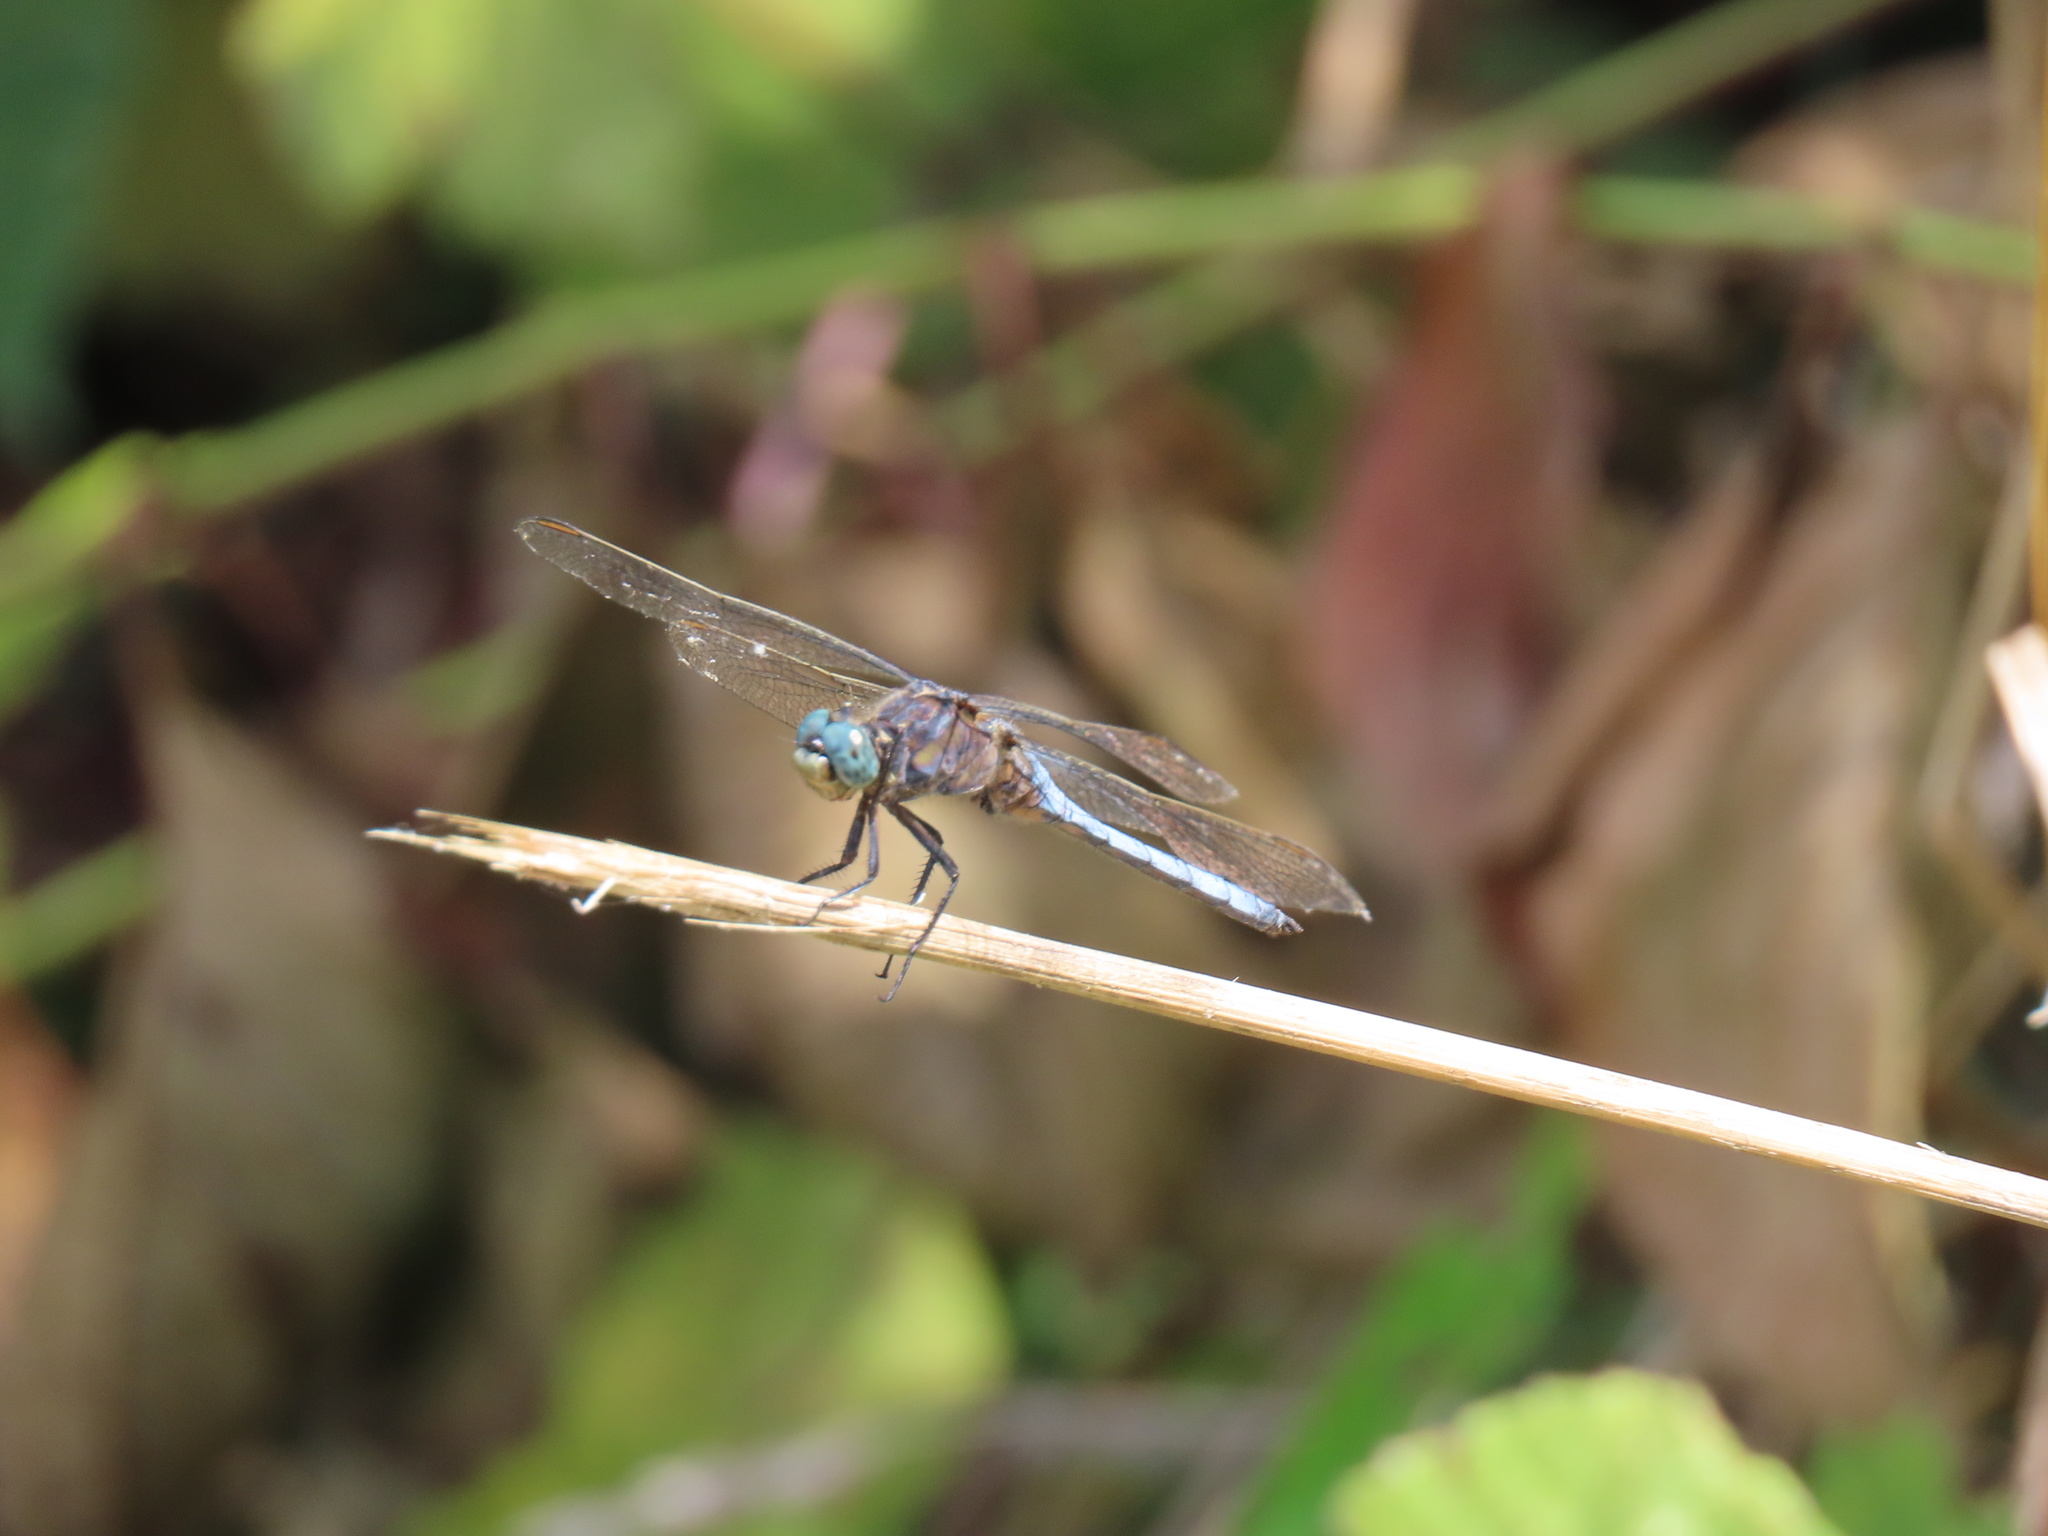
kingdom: Animalia
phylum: Arthropoda
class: Insecta
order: Odonata
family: Libellulidae
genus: Orthetrum
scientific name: Orthetrum coerulescens
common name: Keeled skimmer
